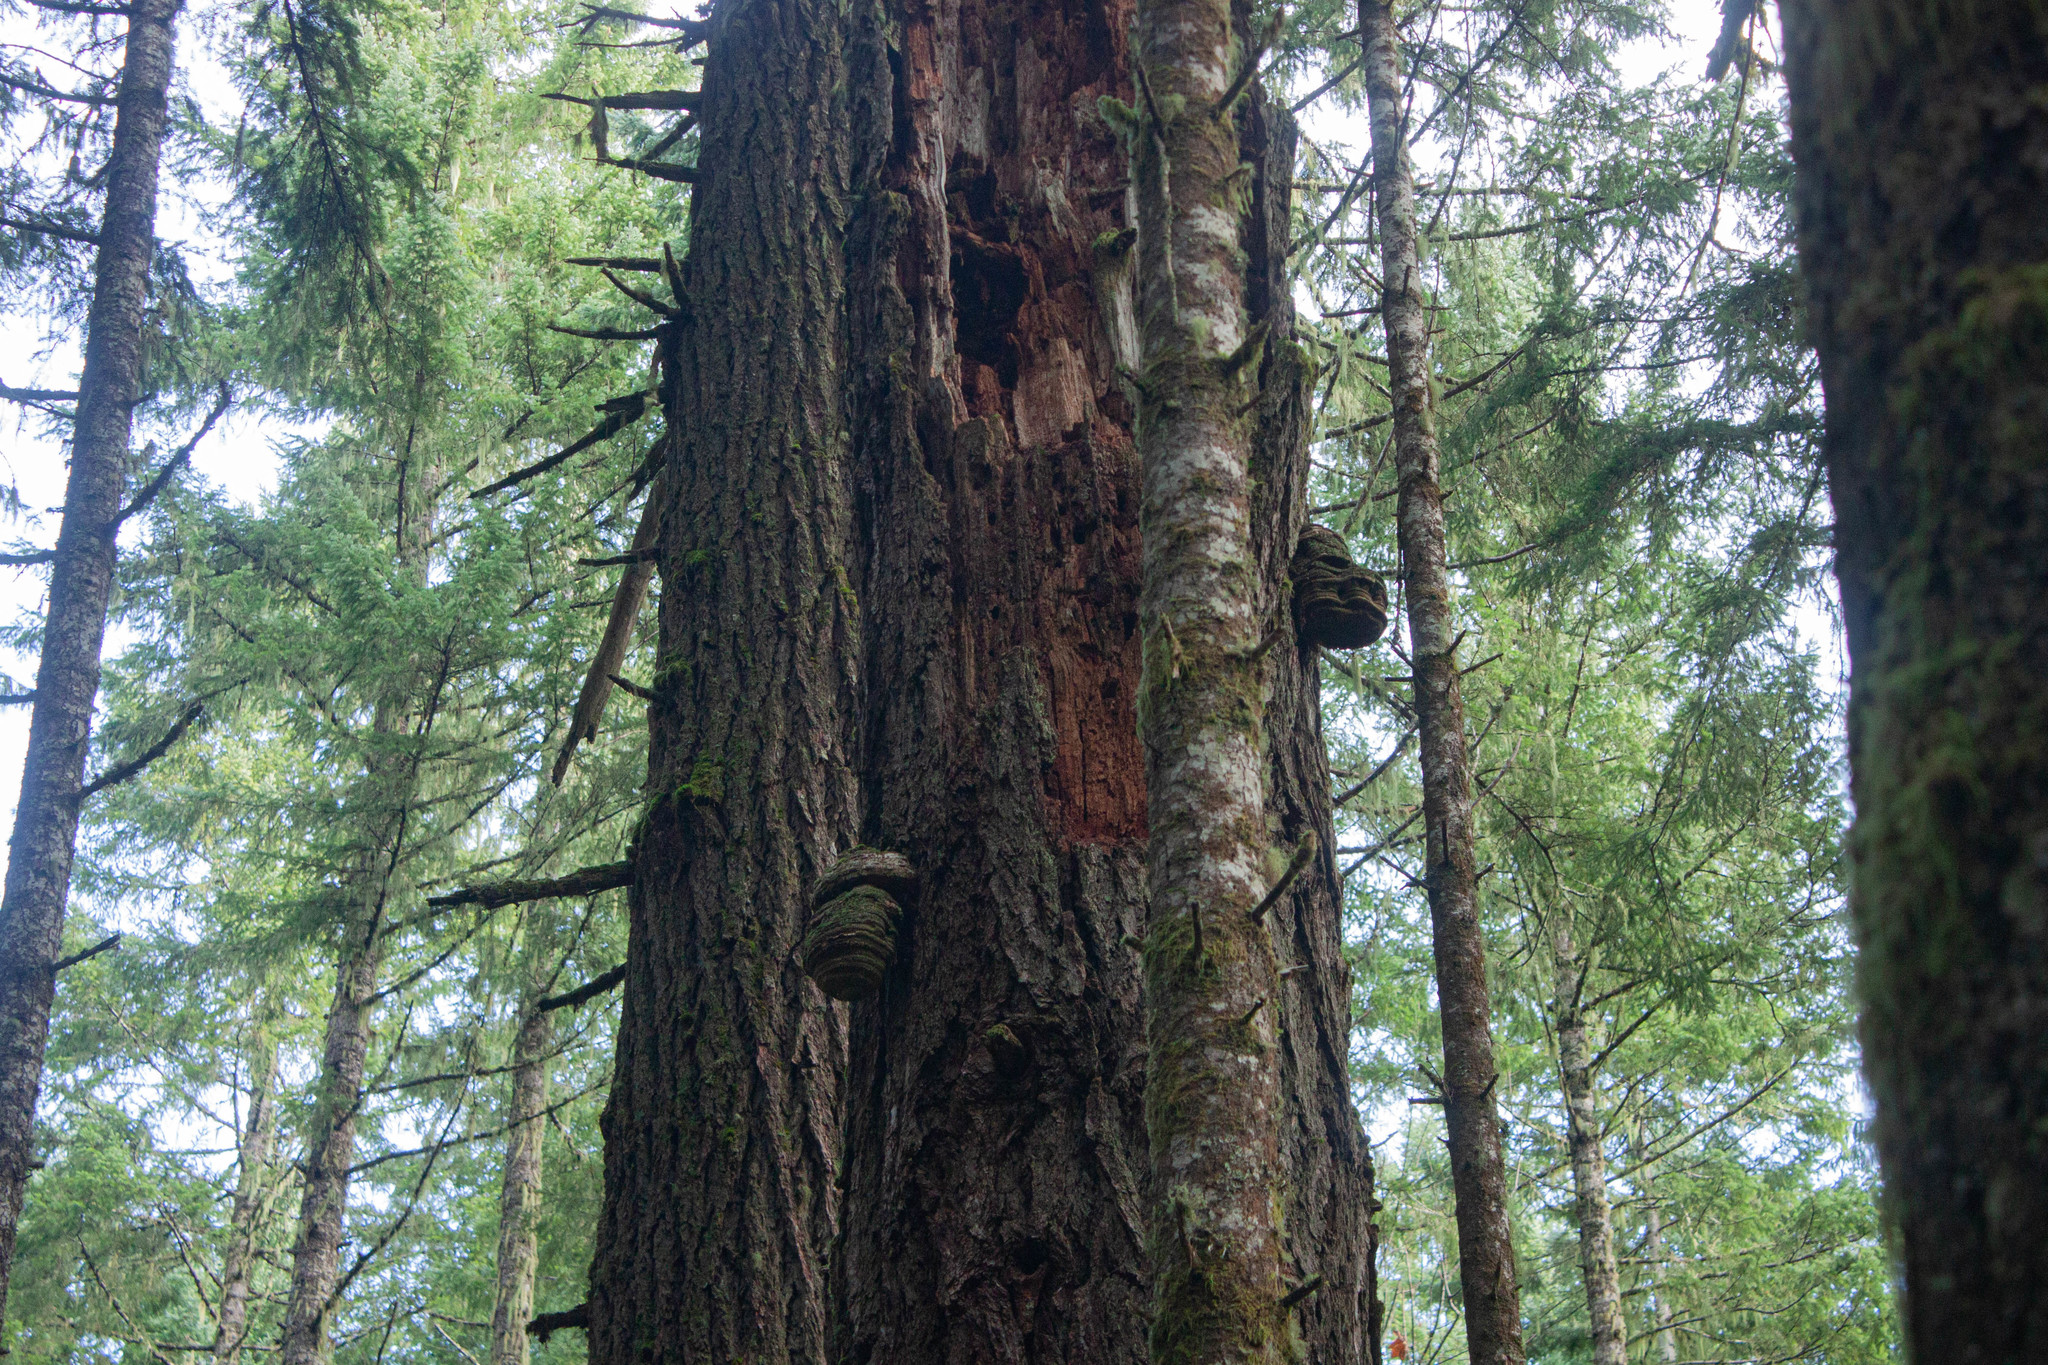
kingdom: Fungi
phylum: Basidiomycota
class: Agaricomycetes
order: Polyporales
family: Fomitopsidaceae
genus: Fomitopsis
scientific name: Fomitopsis officinalis
